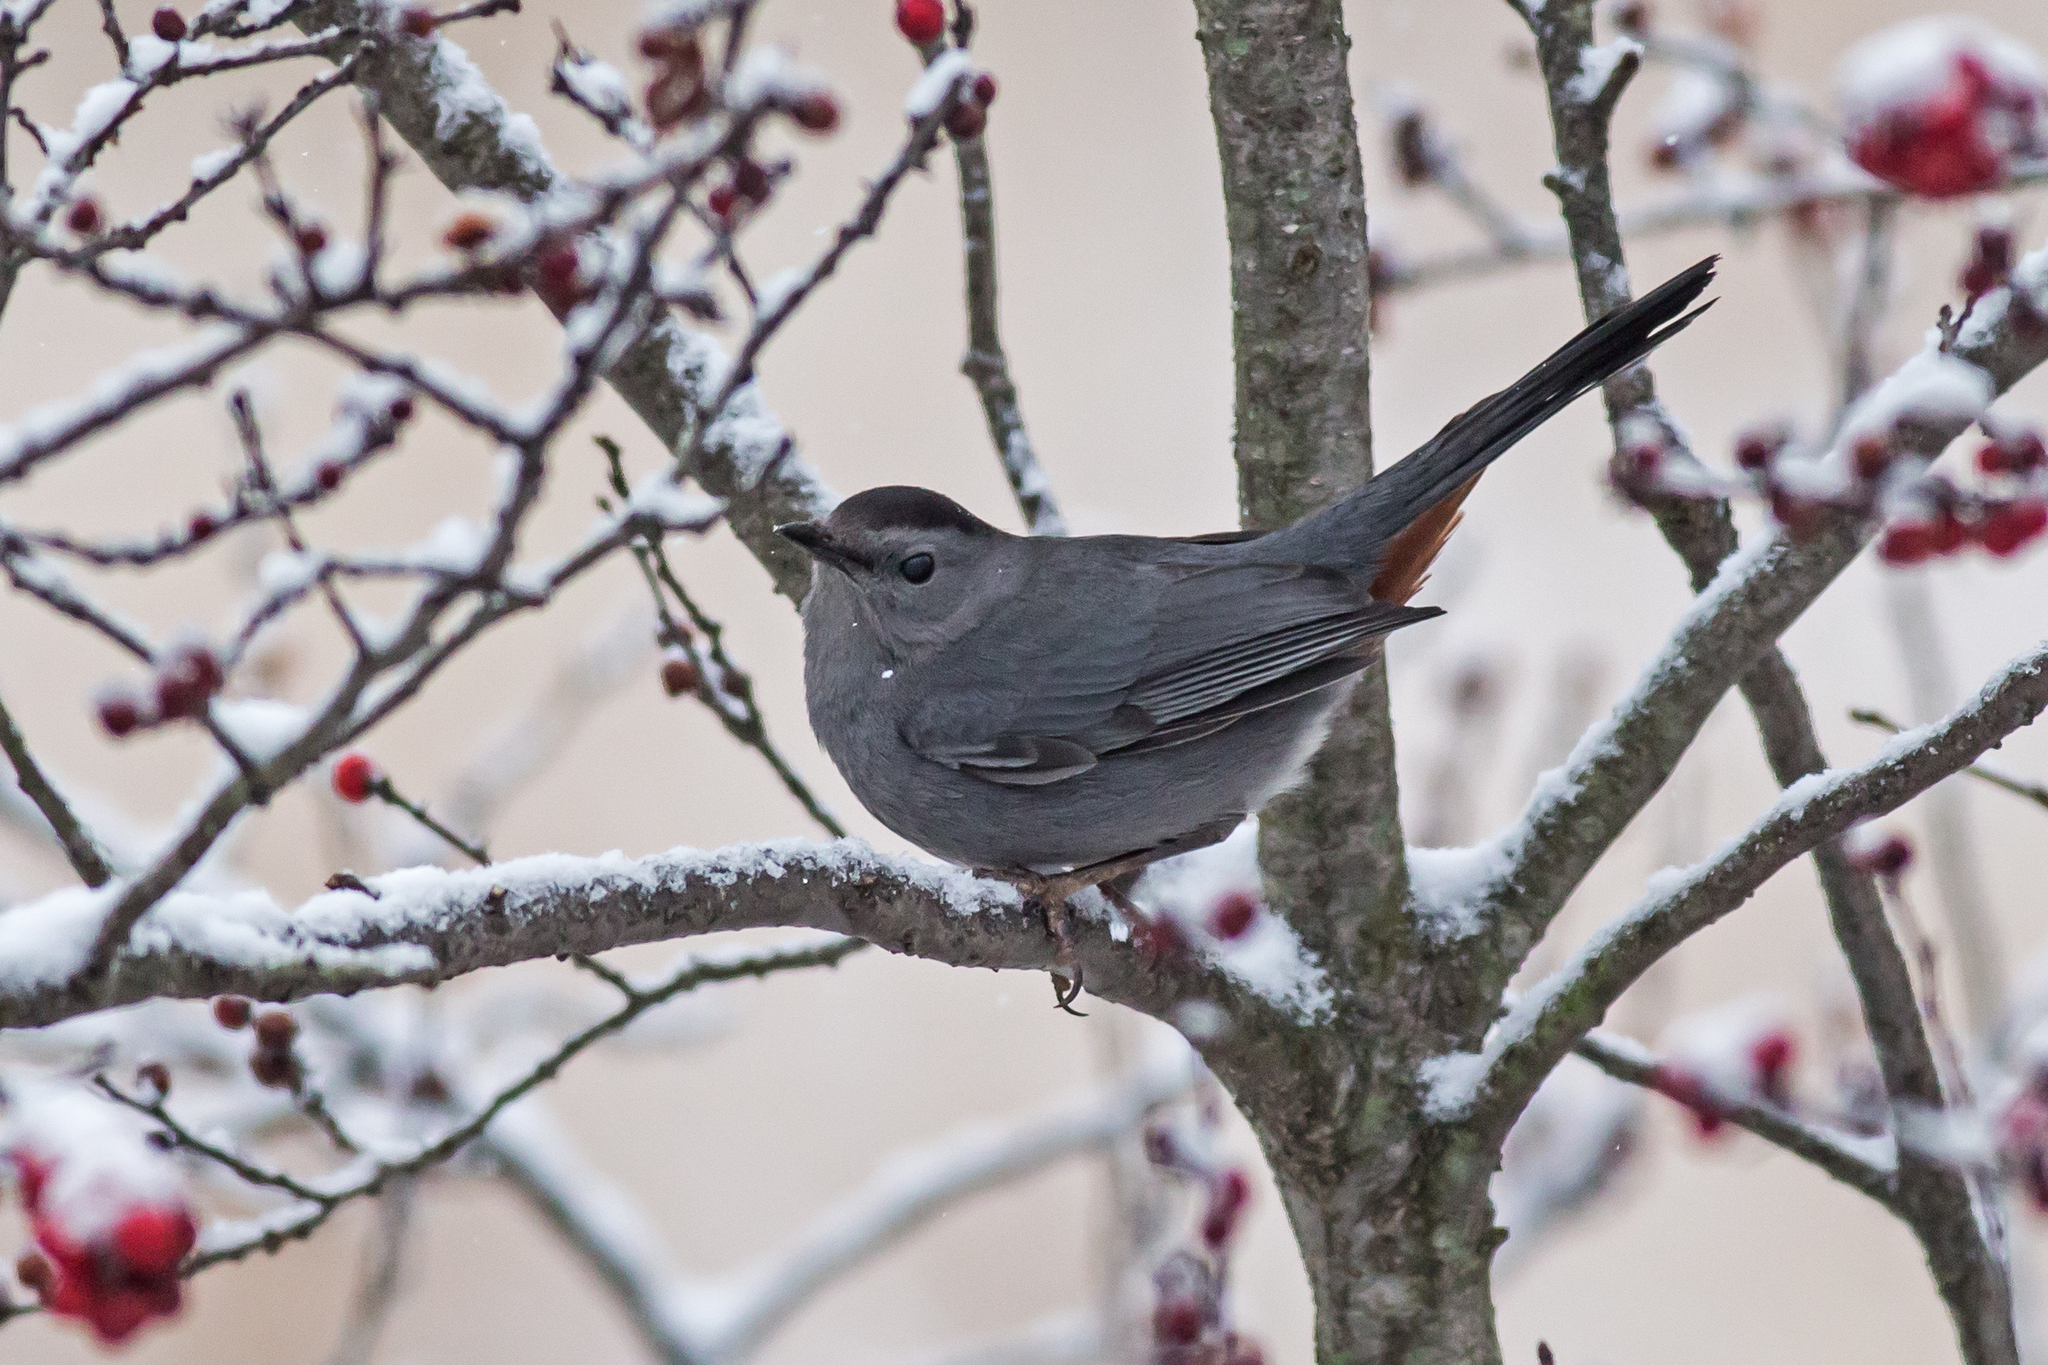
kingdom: Animalia
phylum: Chordata
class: Aves
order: Passeriformes
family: Mimidae
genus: Dumetella
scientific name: Dumetella carolinensis
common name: Gray catbird
